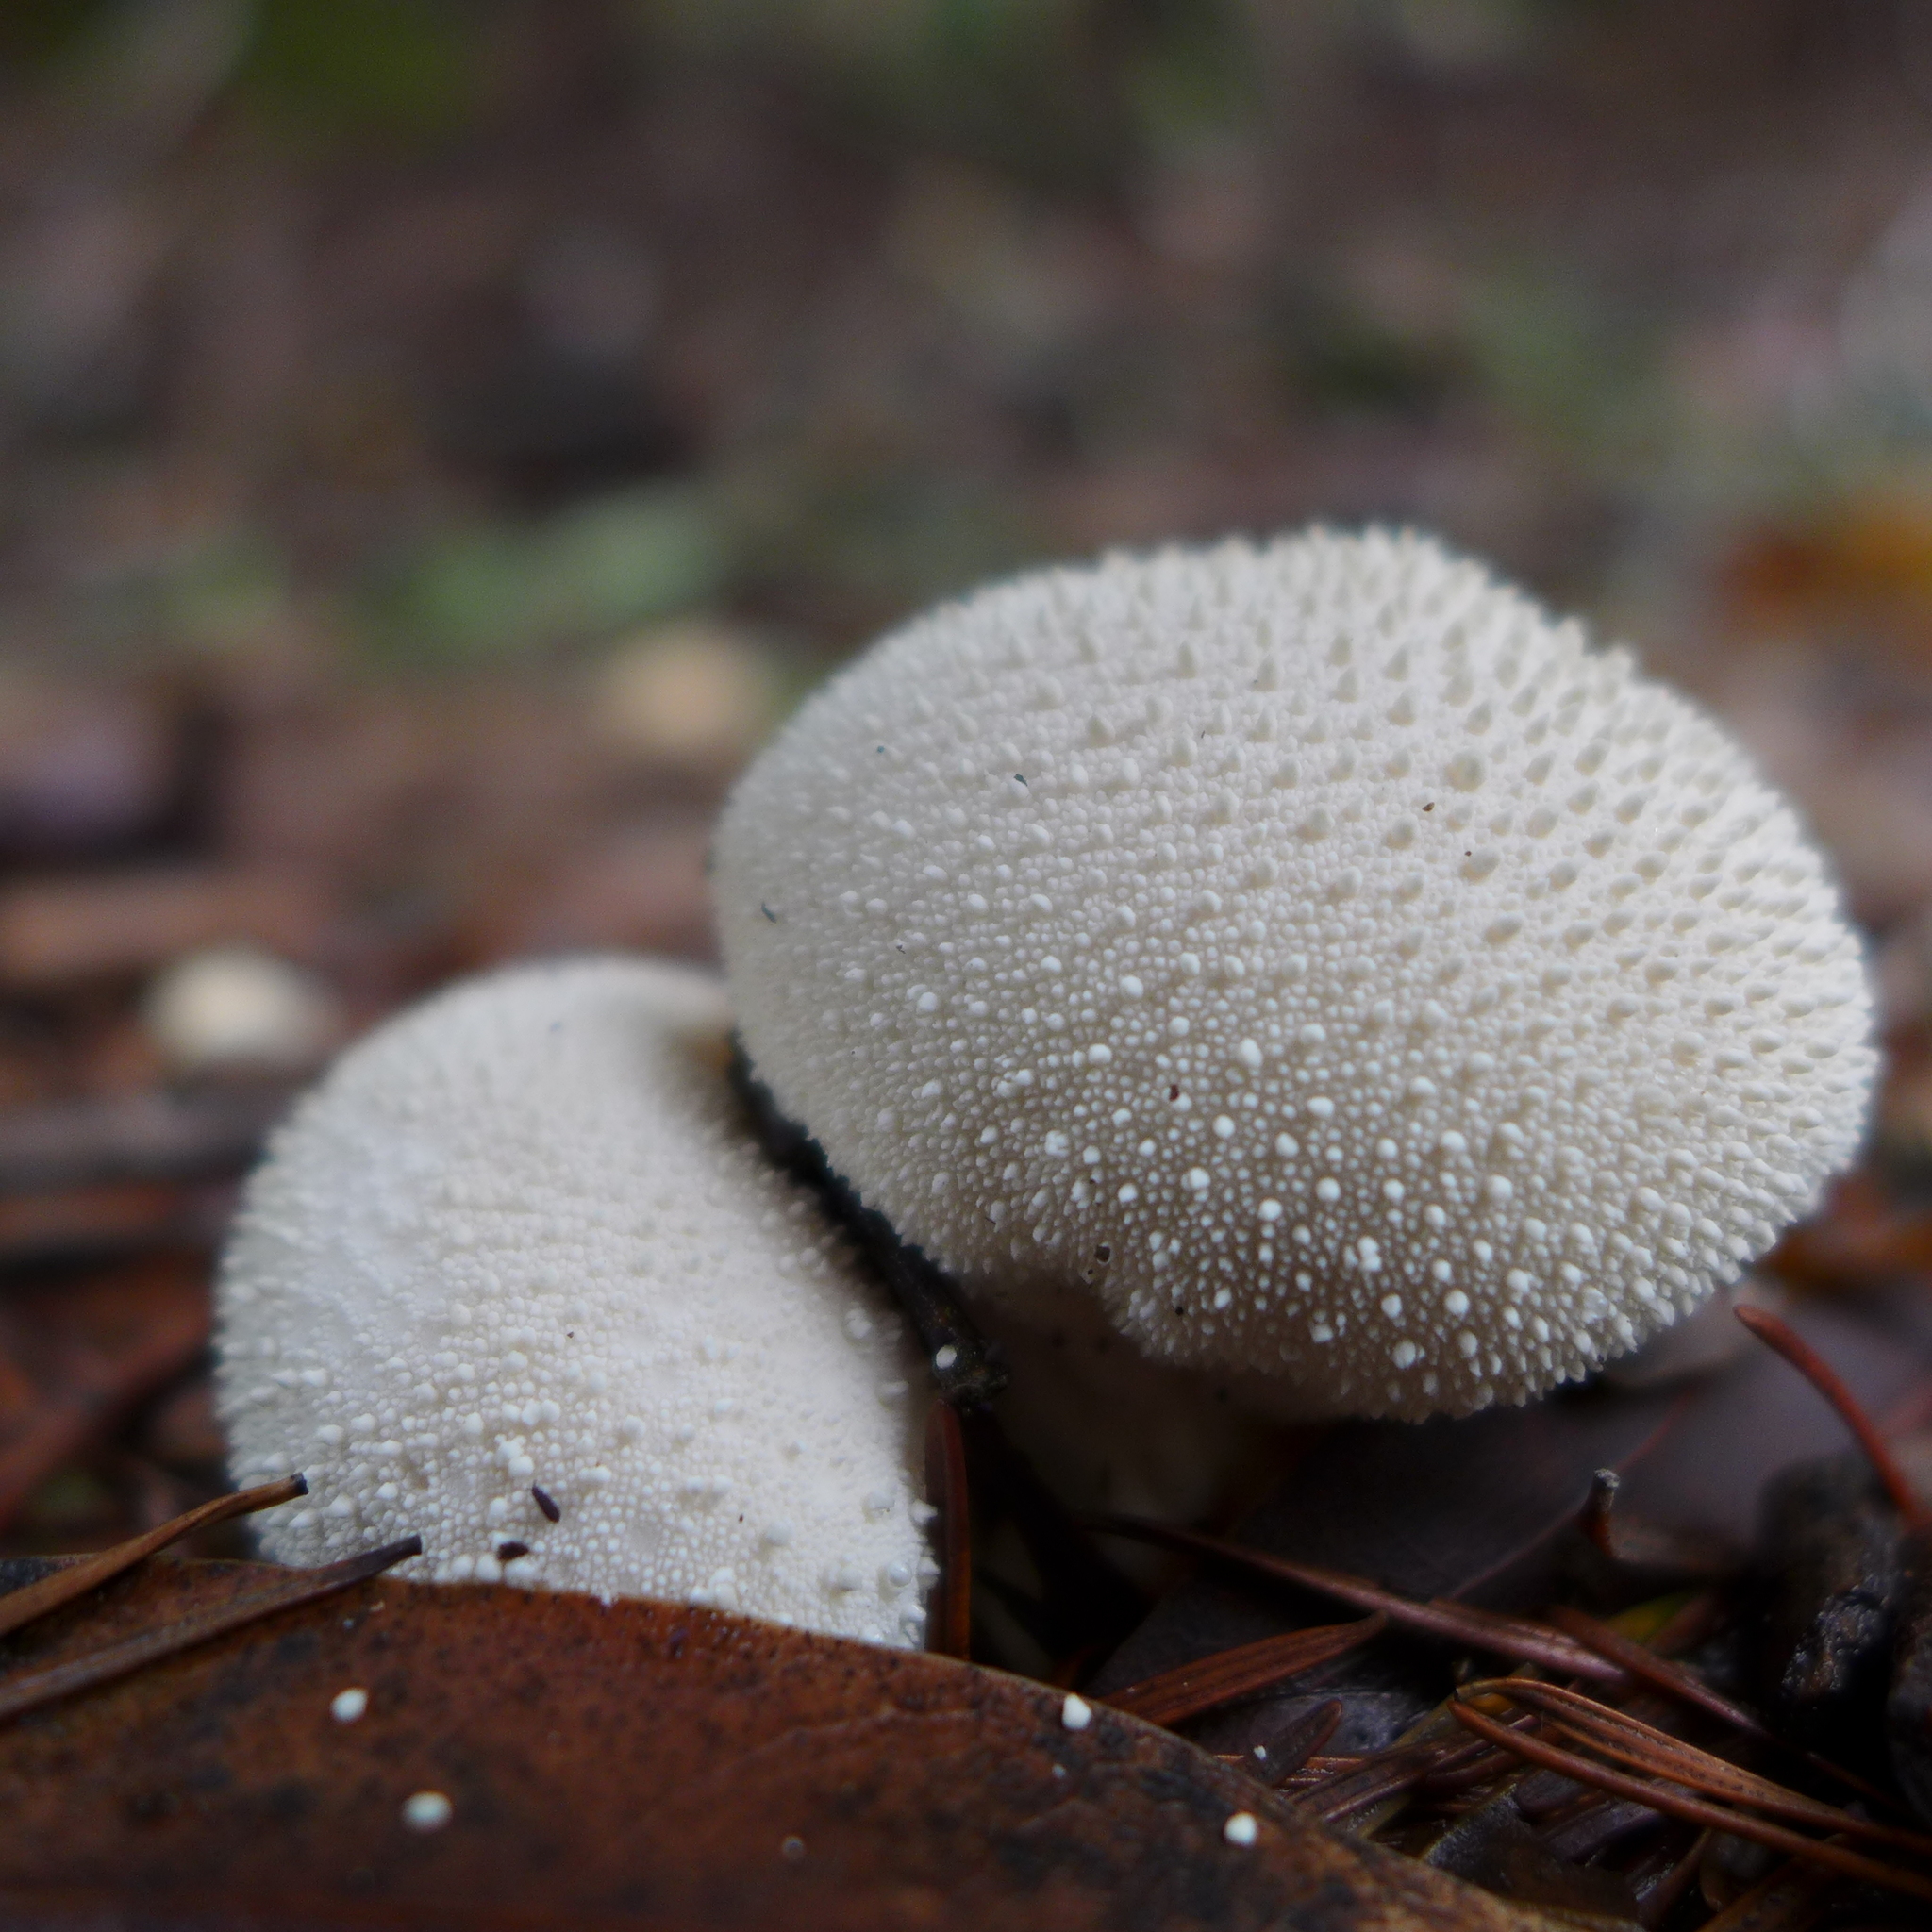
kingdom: Fungi
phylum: Basidiomycota
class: Agaricomycetes
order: Agaricales
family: Lycoperdaceae
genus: Lycoperdon
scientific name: Lycoperdon perlatum
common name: Common puffball
